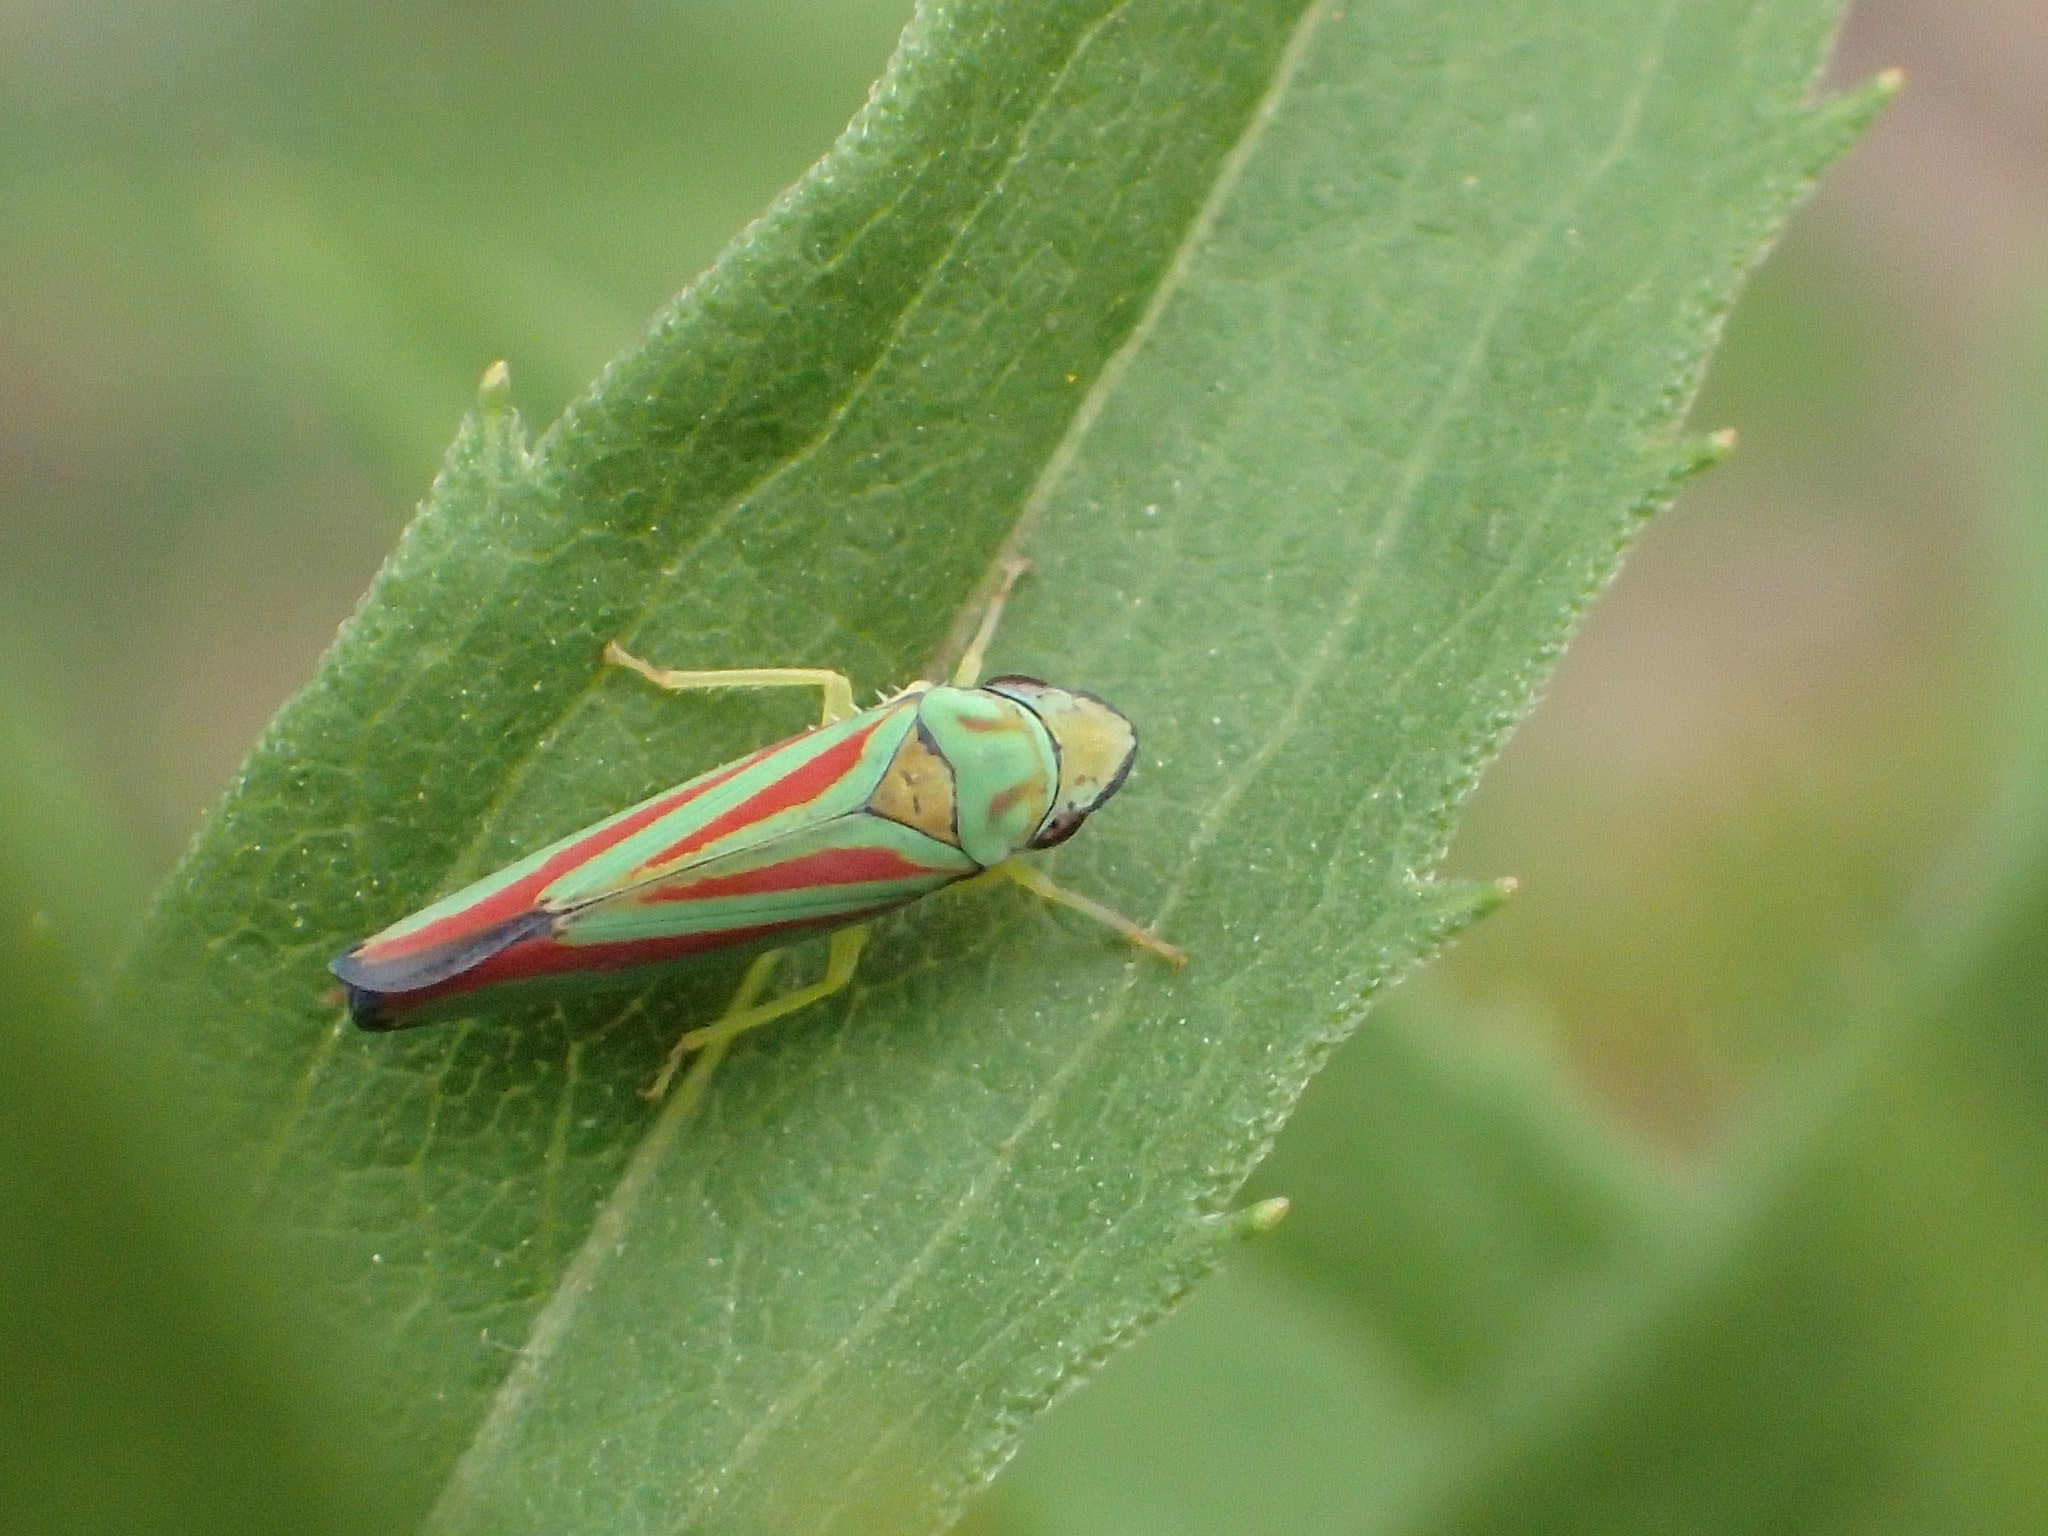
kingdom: Animalia
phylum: Arthropoda
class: Insecta
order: Hemiptera
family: Cicadellidae
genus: Graphocephala
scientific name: Graphocephala coccinea
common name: Candy-striped leafhopper
